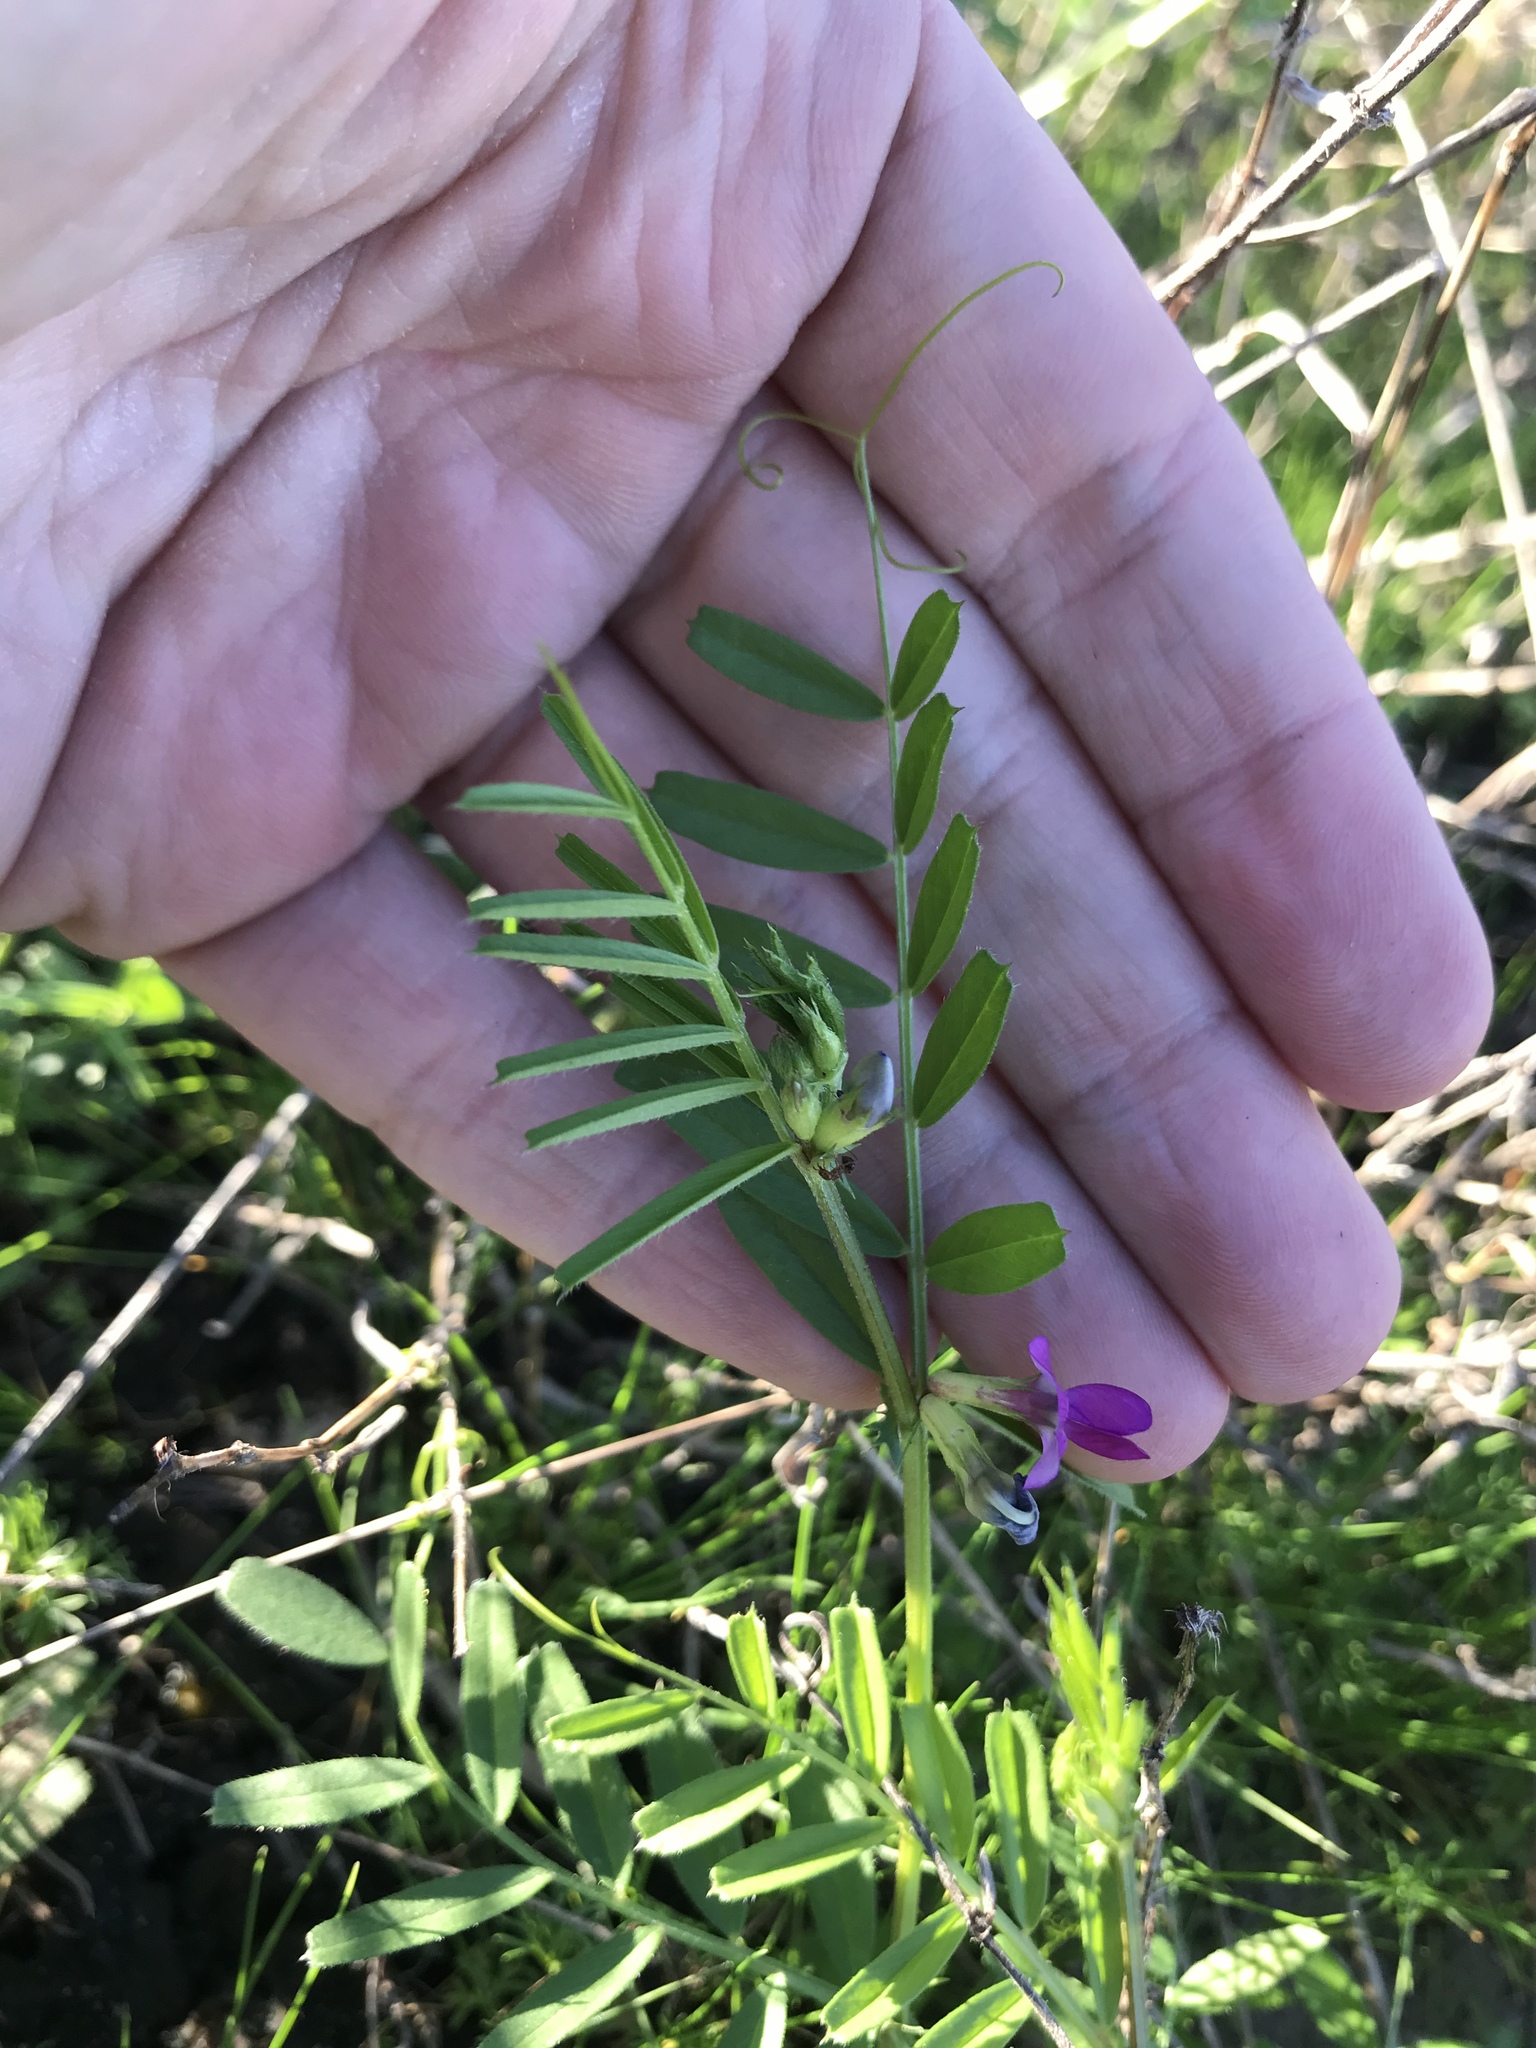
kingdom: Plantae
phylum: Tracheophyta
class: Magnoliopsida
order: Fabales
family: Fabaceae
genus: Vicia
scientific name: Vicia sativa
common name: Garden vetch
